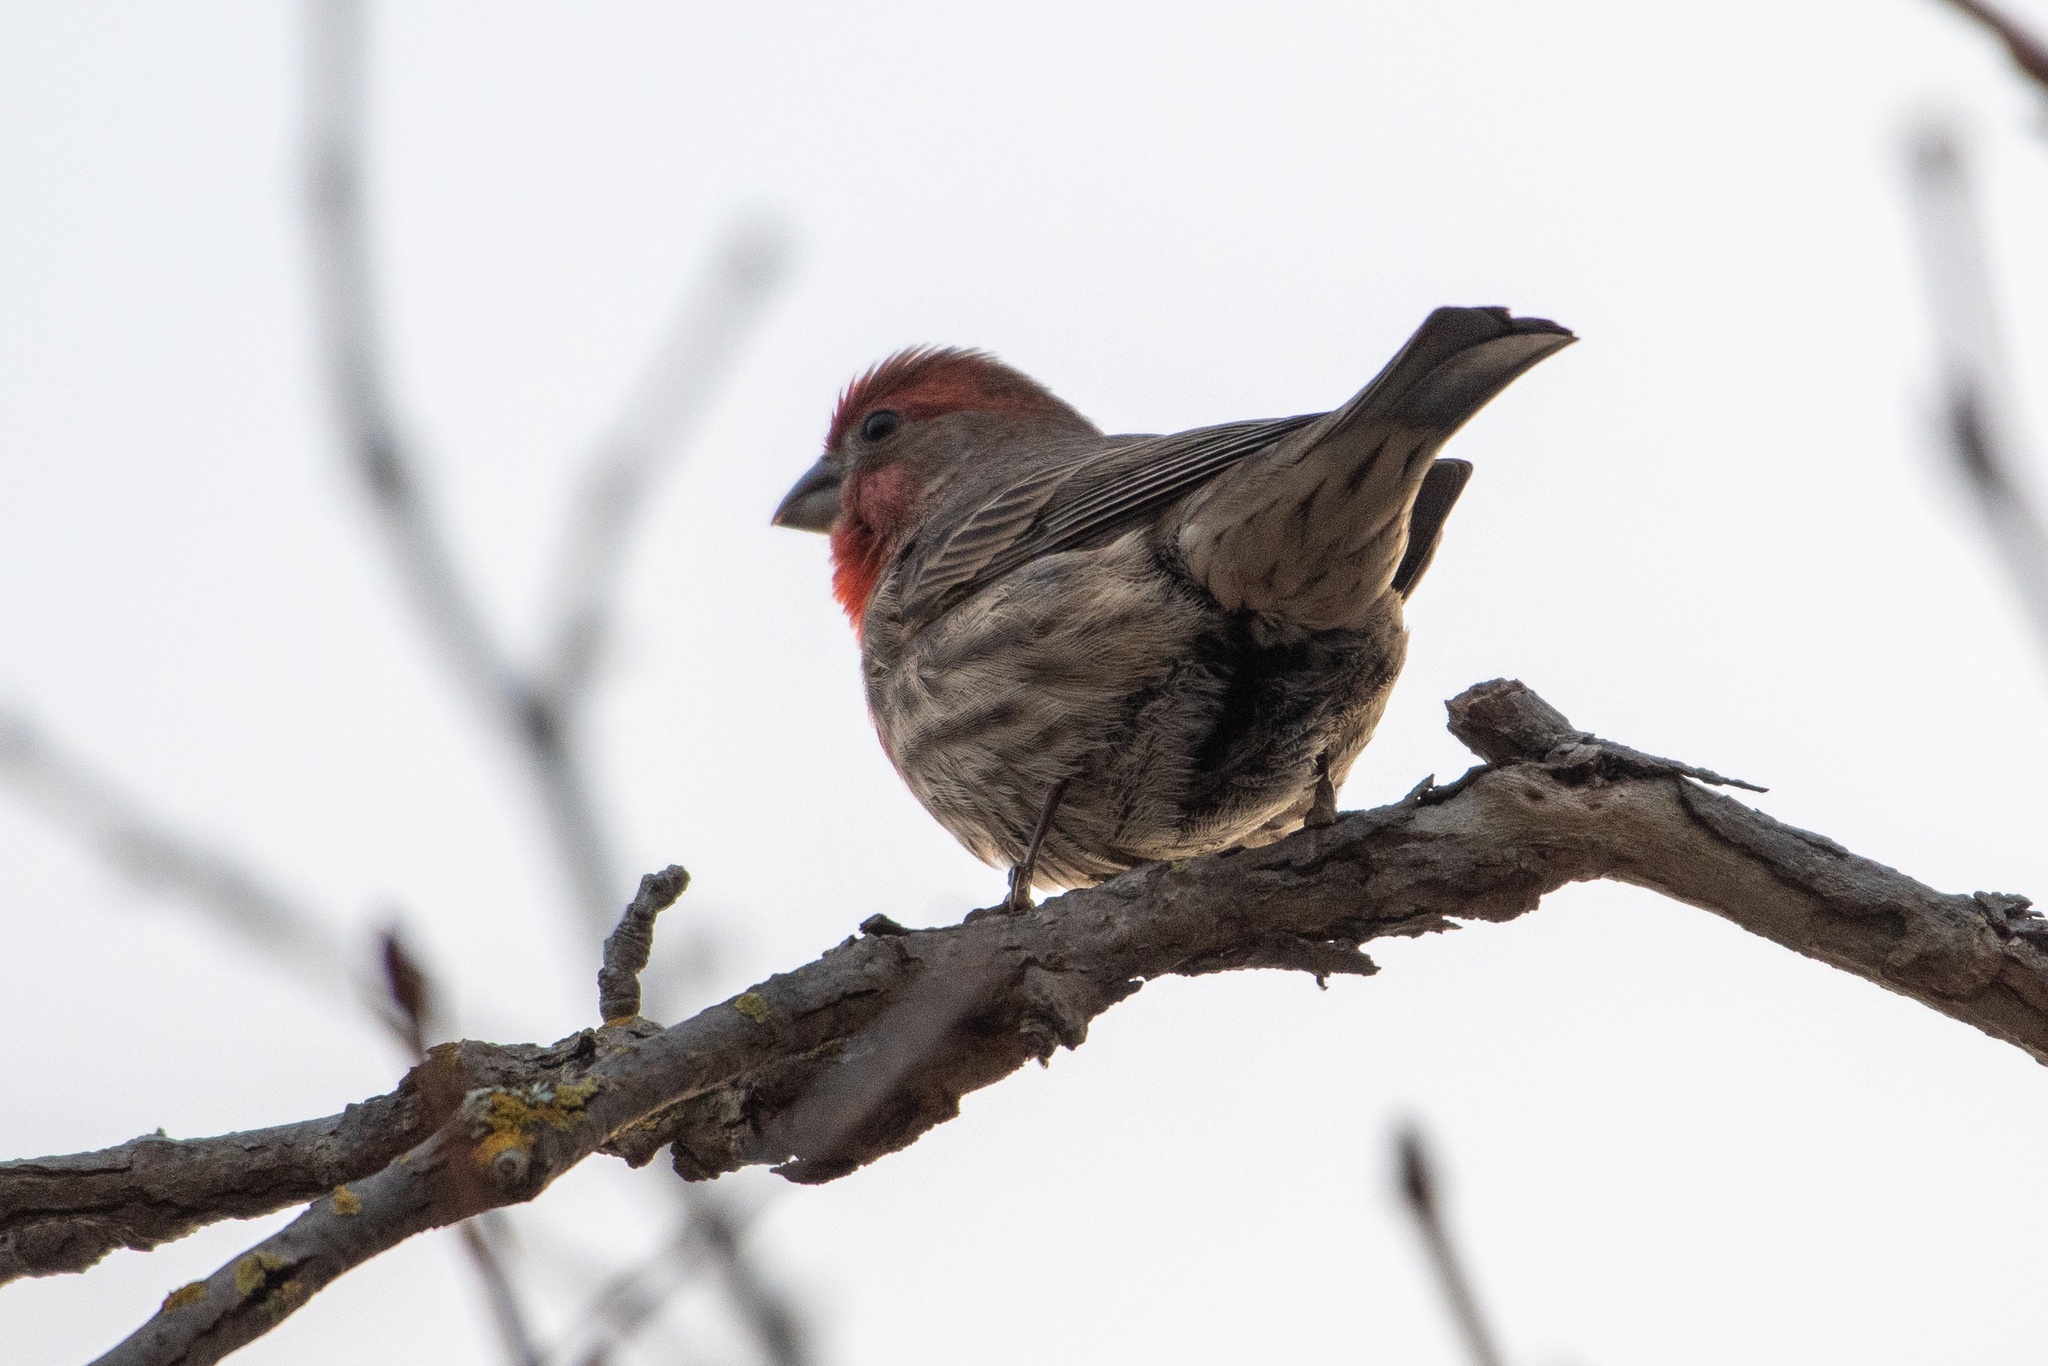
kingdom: Animalia
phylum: Chordata
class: Aves
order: Passeriformes
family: Fringillidae
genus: Haemorhous
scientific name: Haemorhous mexicanus
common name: House finch
